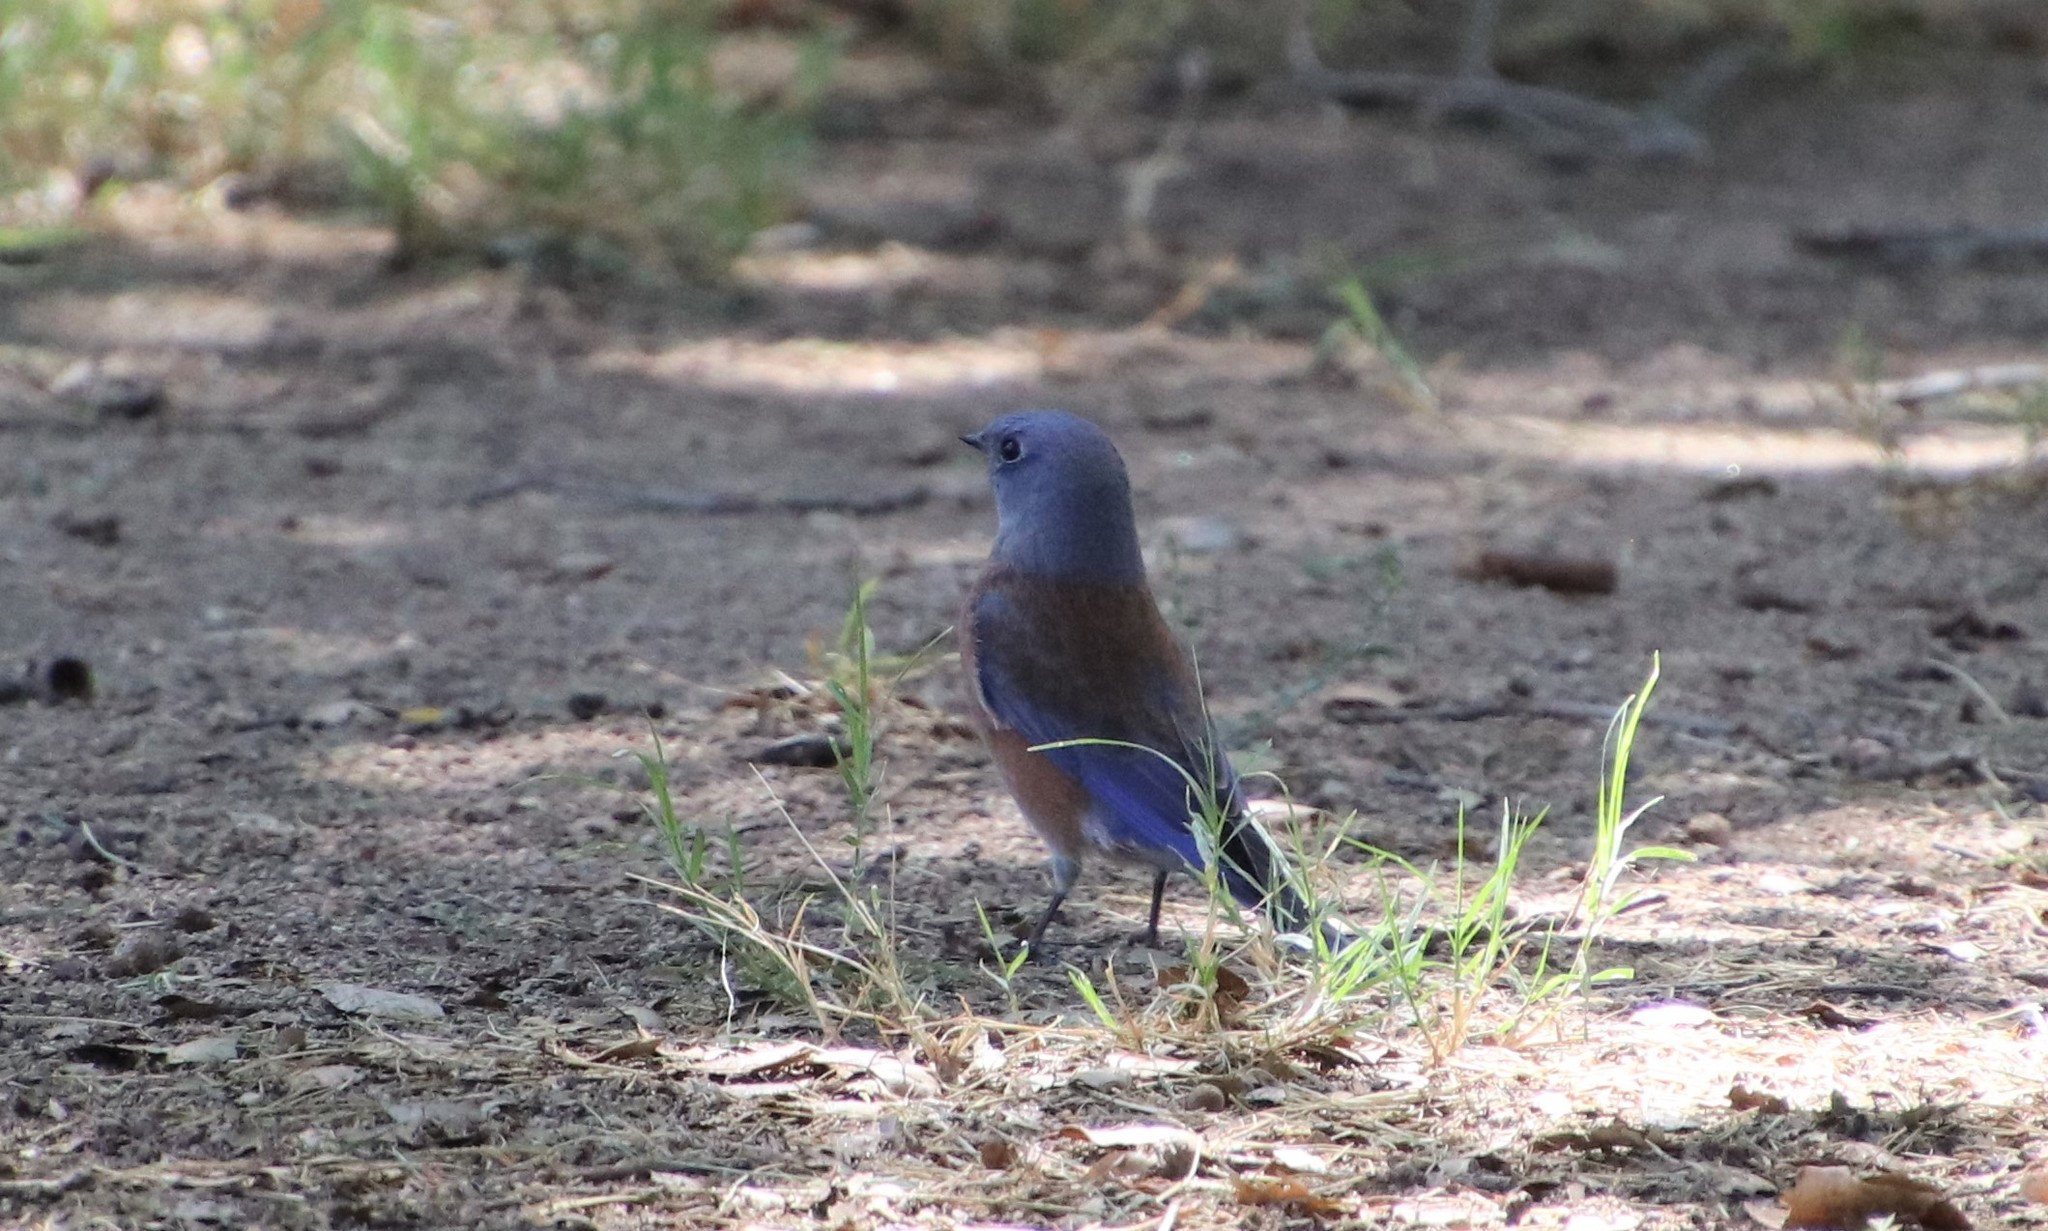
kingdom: Animalia
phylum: Chordata
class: Aves
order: Passeriformes
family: Turdidae
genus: Sialia
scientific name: Sialia mexicana
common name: Western bluebird
